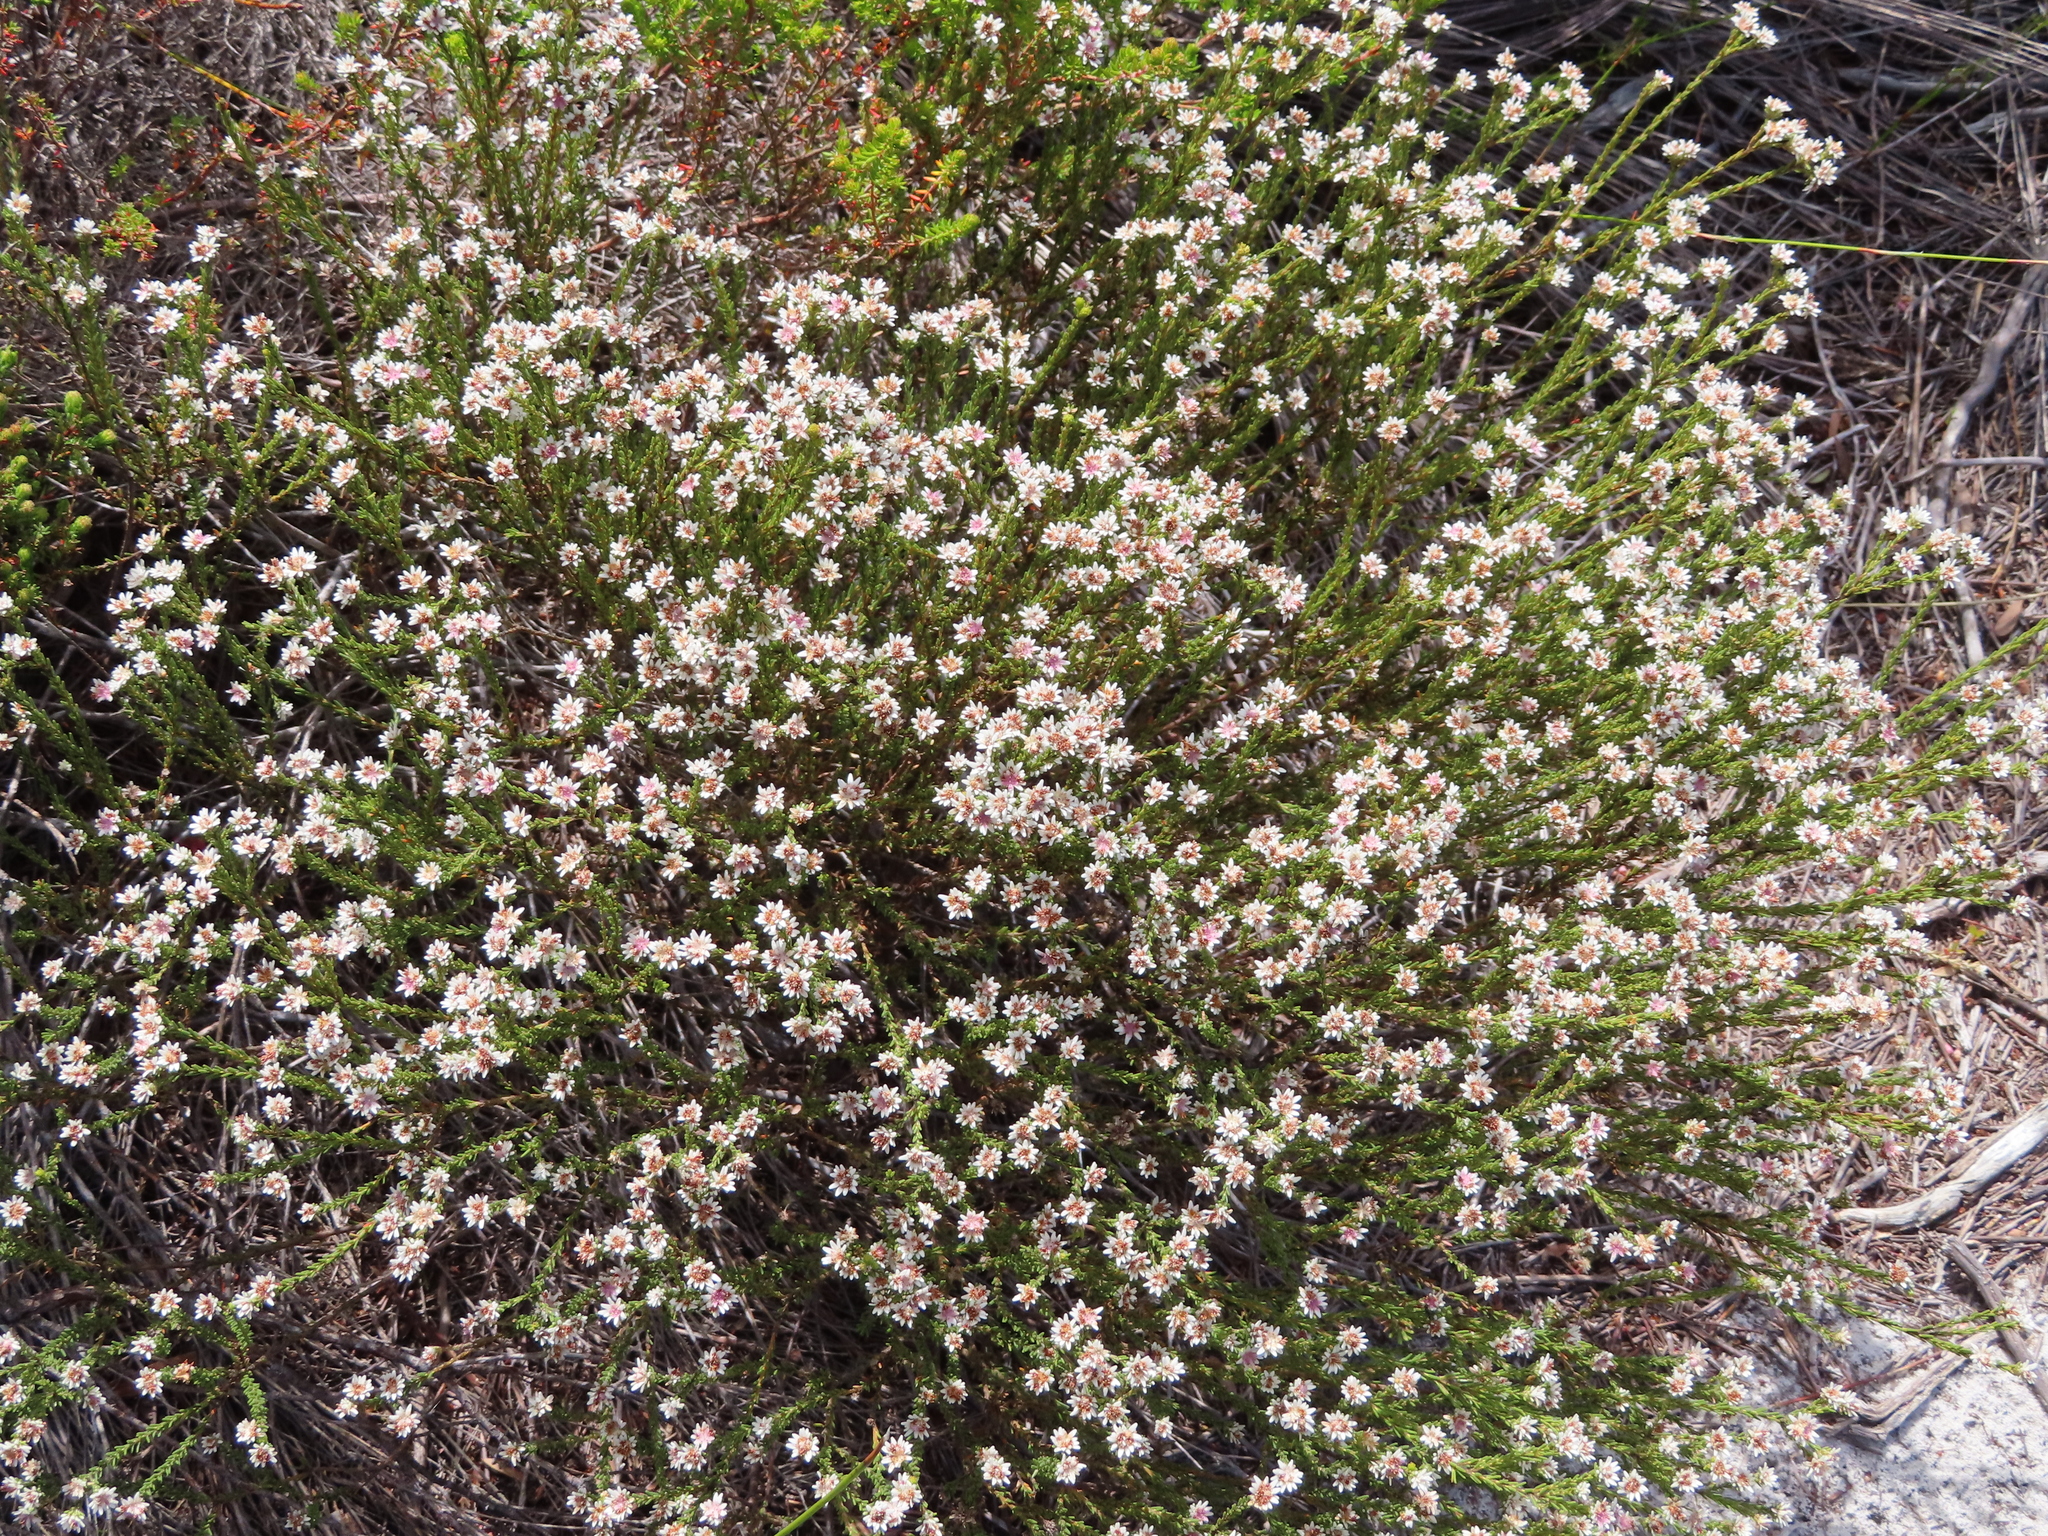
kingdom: Plantae
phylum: Tracheophyta
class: Magnoliopsida
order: Bruniales
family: Bruniaceae
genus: Staavia
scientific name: Staavia radiata
